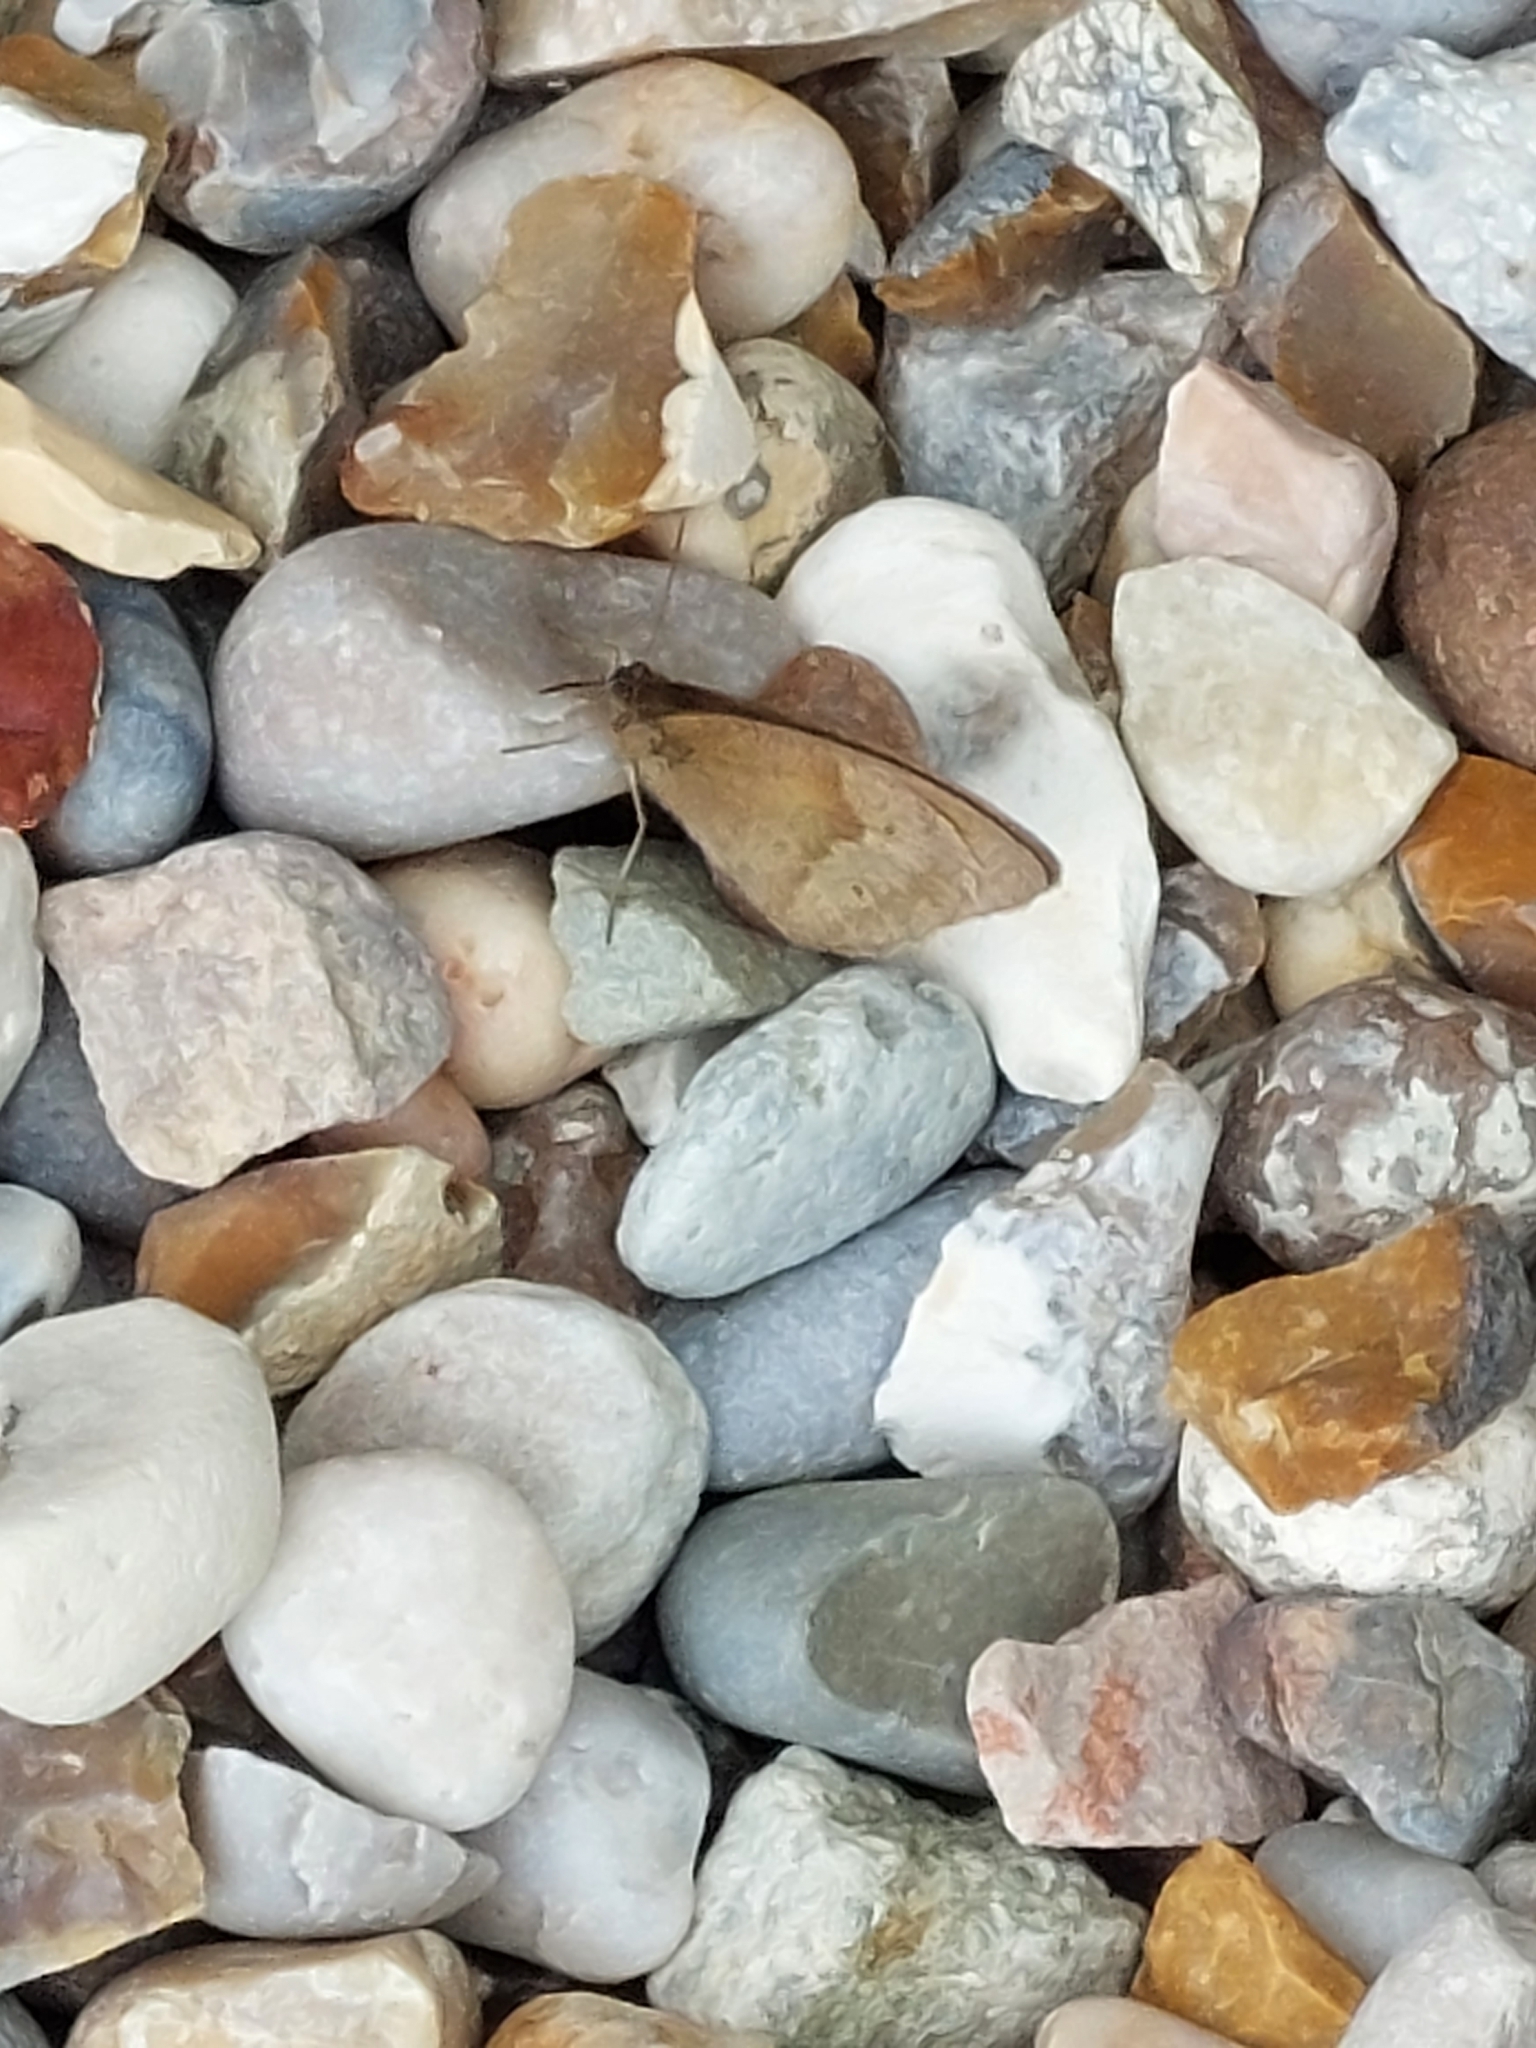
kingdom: Animalia
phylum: Arthropoda
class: Insecta
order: Lepidoptera
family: Nymphalidae
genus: Maniola
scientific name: Maniola jurtina
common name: Meadow brown
